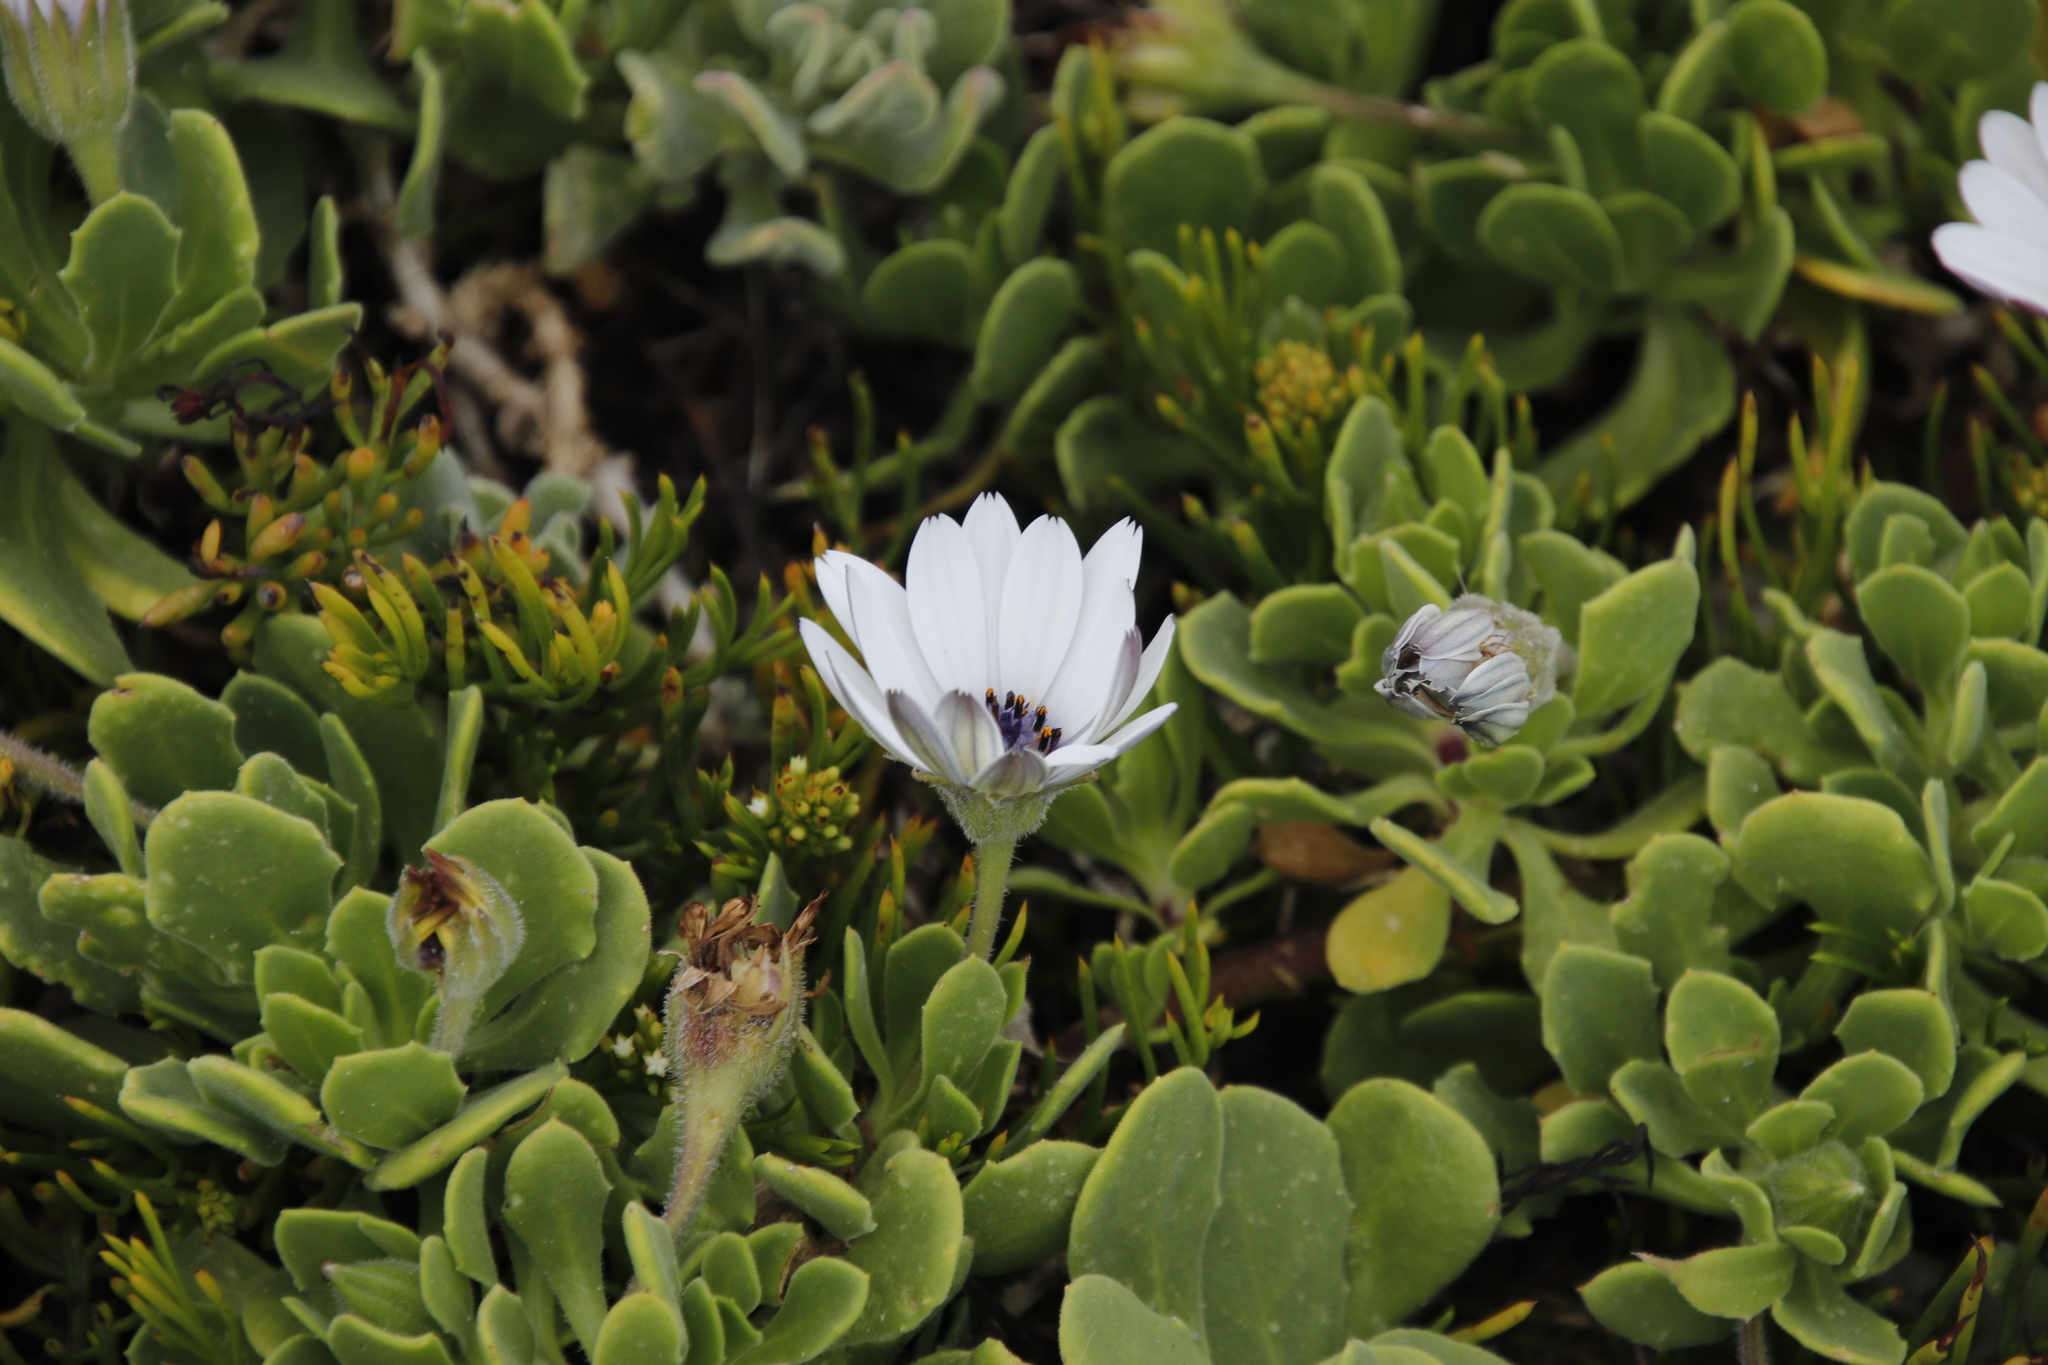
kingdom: Plantae
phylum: Tracheophyta
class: Magnoliopsida
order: Asterales
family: Asteraceae
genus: Dimorphotheca
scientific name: Dimorphotheca fruticosa
